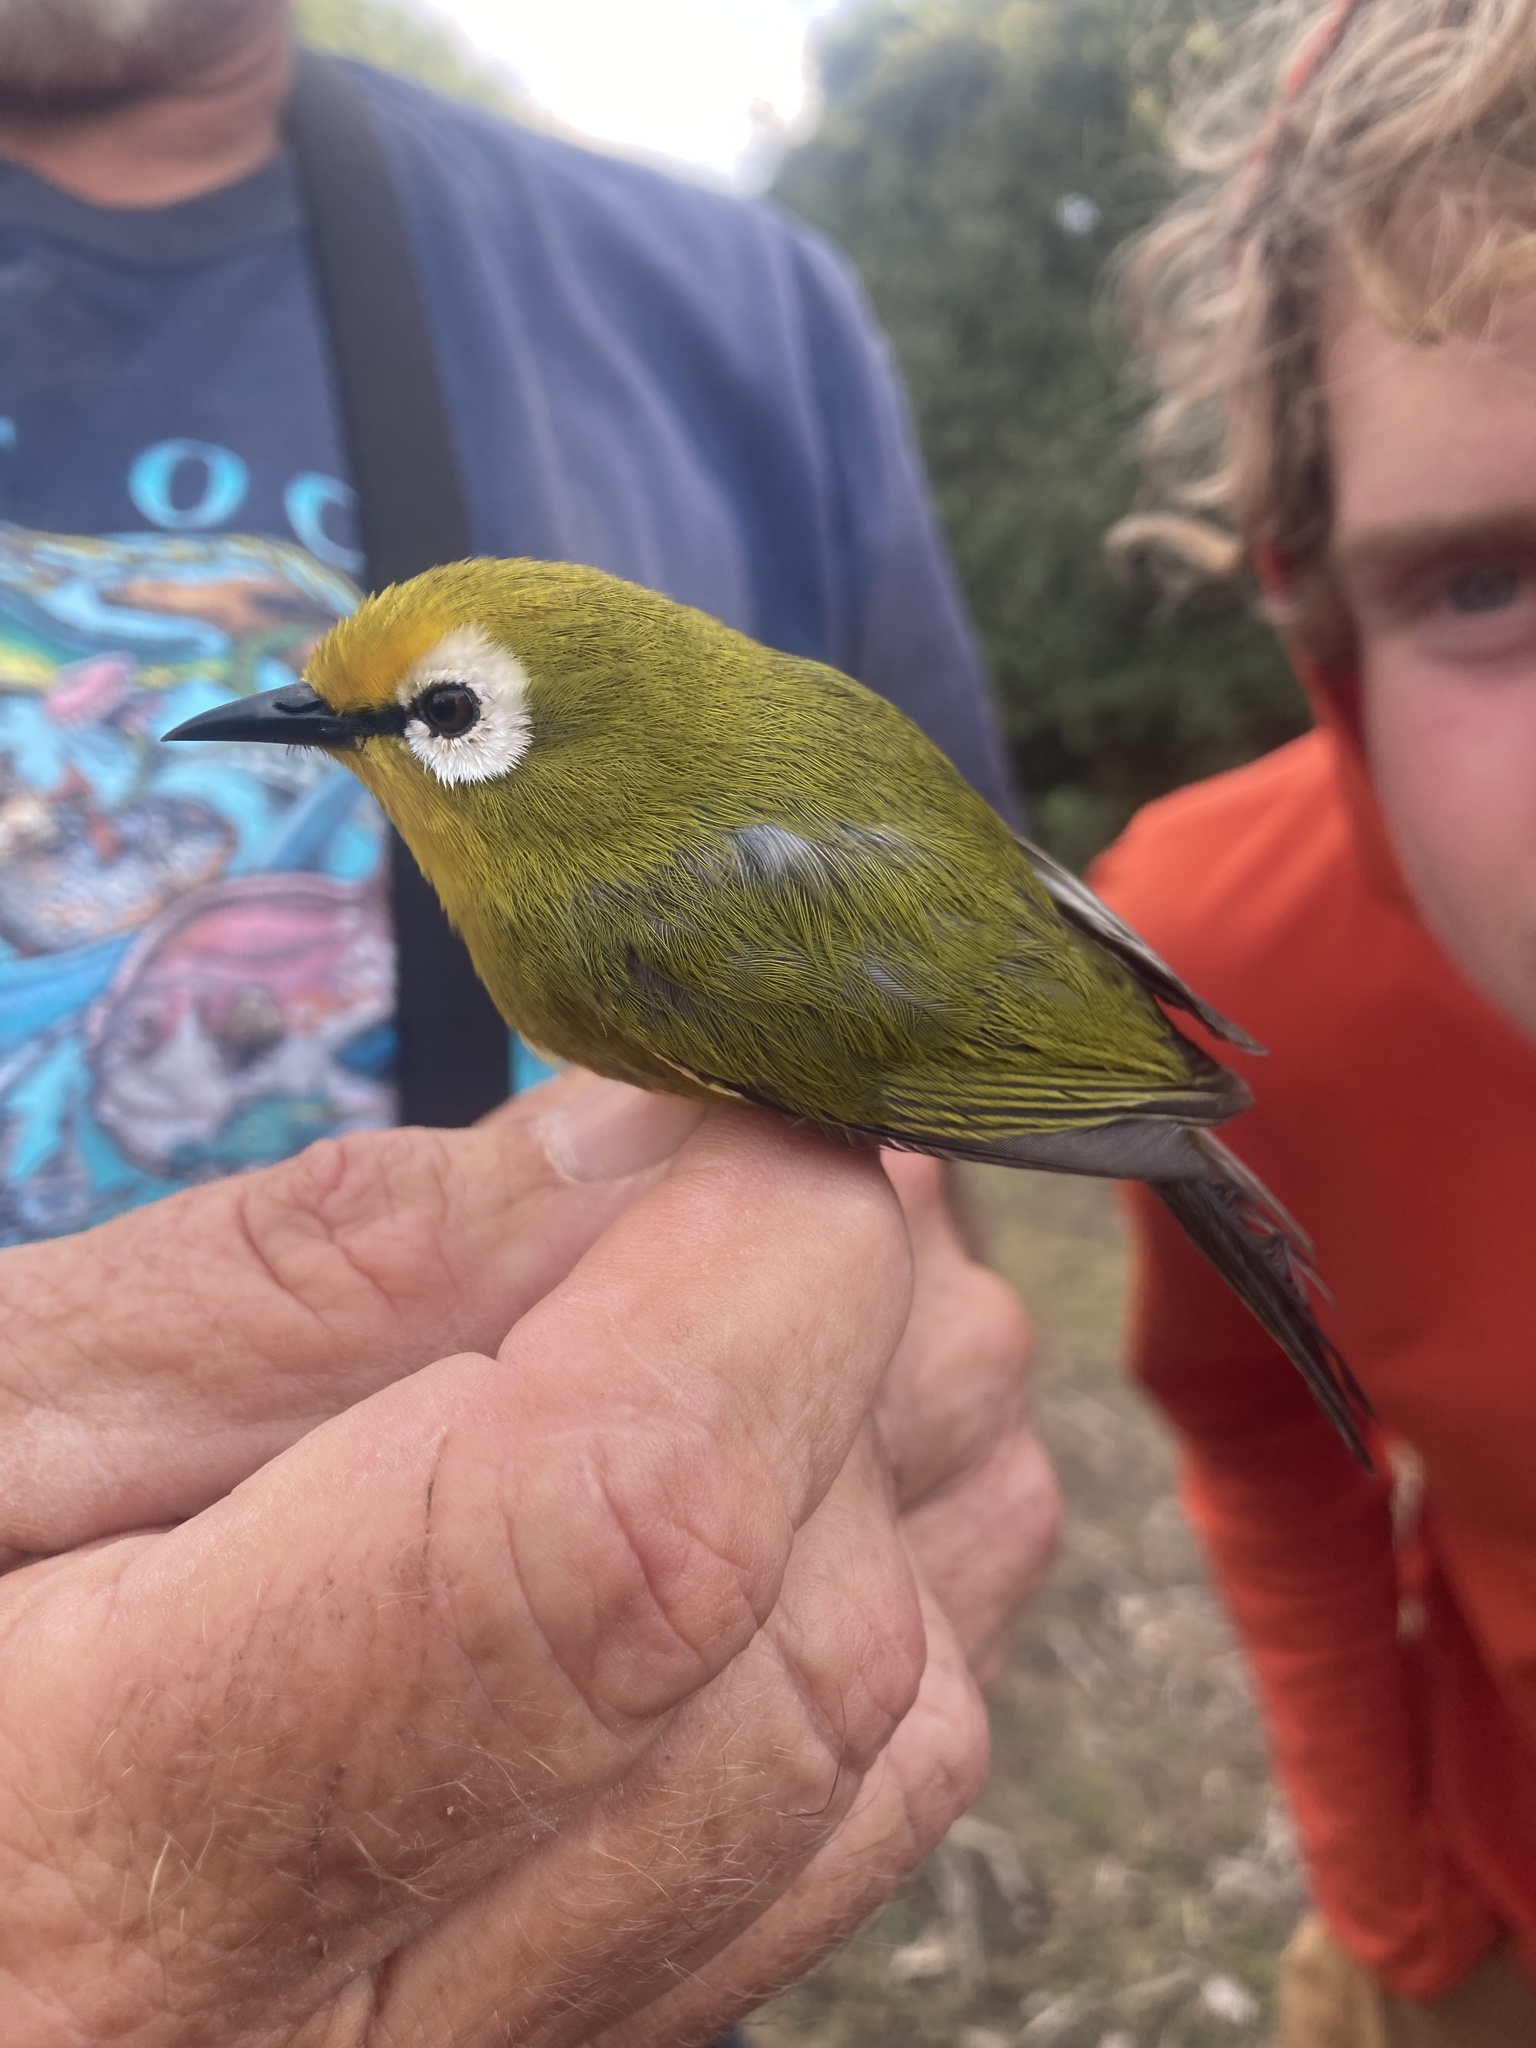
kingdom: Animalia
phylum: Chordata
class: Aves
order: Passeriformes
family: Zosteropidae
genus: Zosterops
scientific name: Zosterops mbuluensis
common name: Mbulu white-eye
